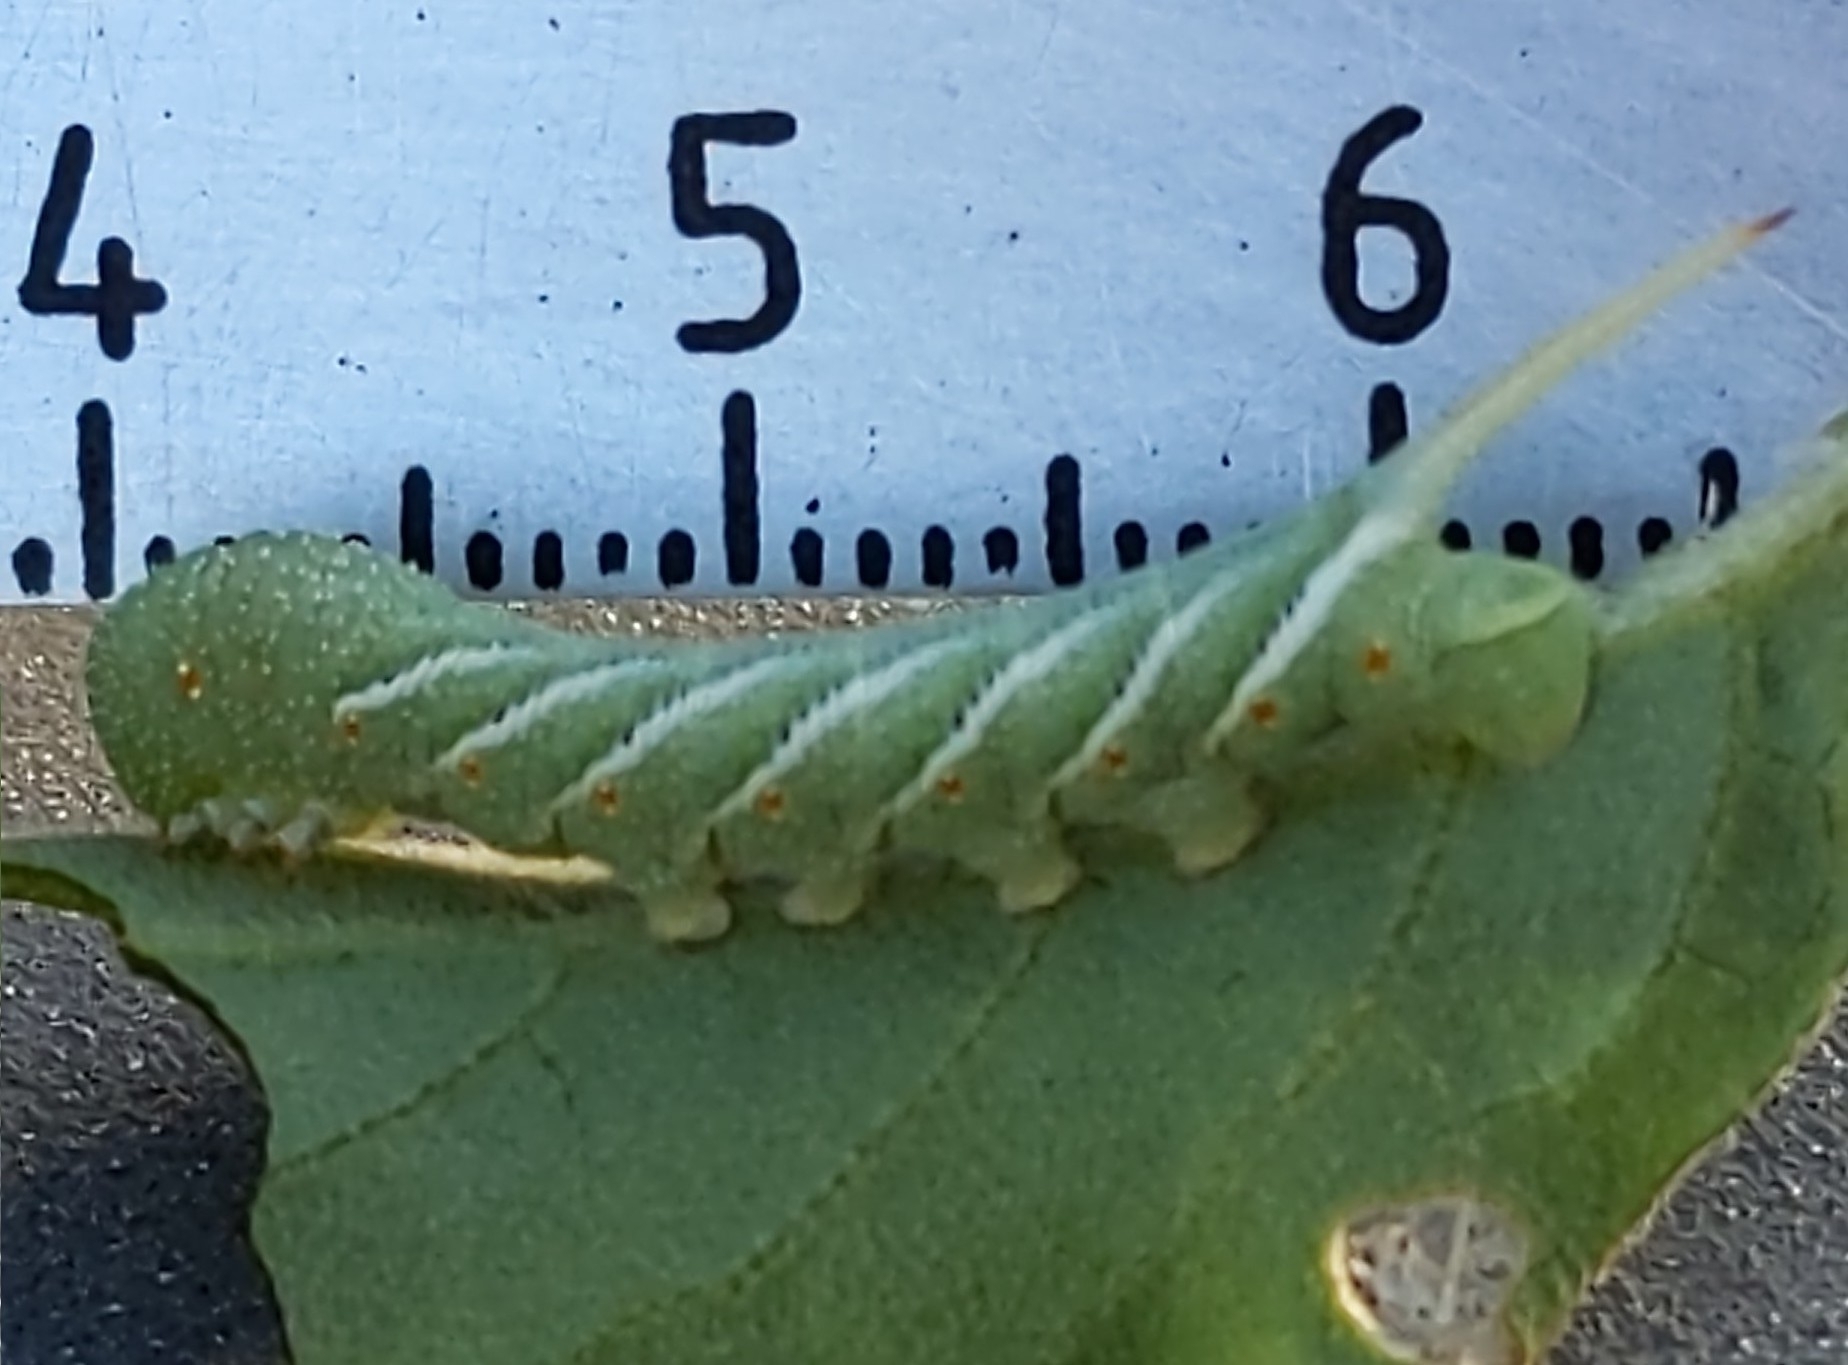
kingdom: Animalia
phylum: Arthropoda
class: Insecta
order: Lepidoptera
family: Sphingidae
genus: Manduca
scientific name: Manduca sexta
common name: Carolina sphinx
